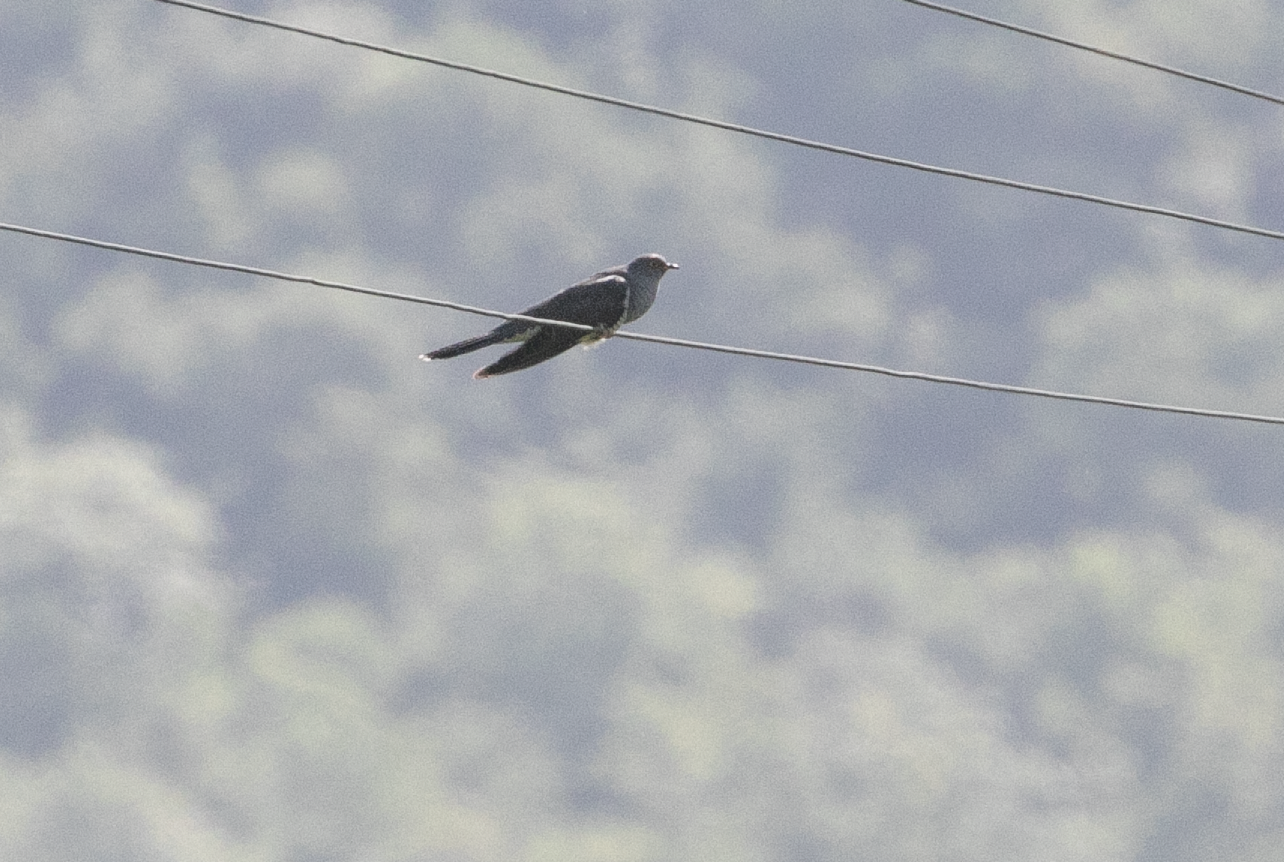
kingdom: Animalia
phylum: Chordata
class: Aves
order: Cuculiformes
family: Cuculidae
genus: Cuculus
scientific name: Cuculus canorus
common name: Common cuckoo
